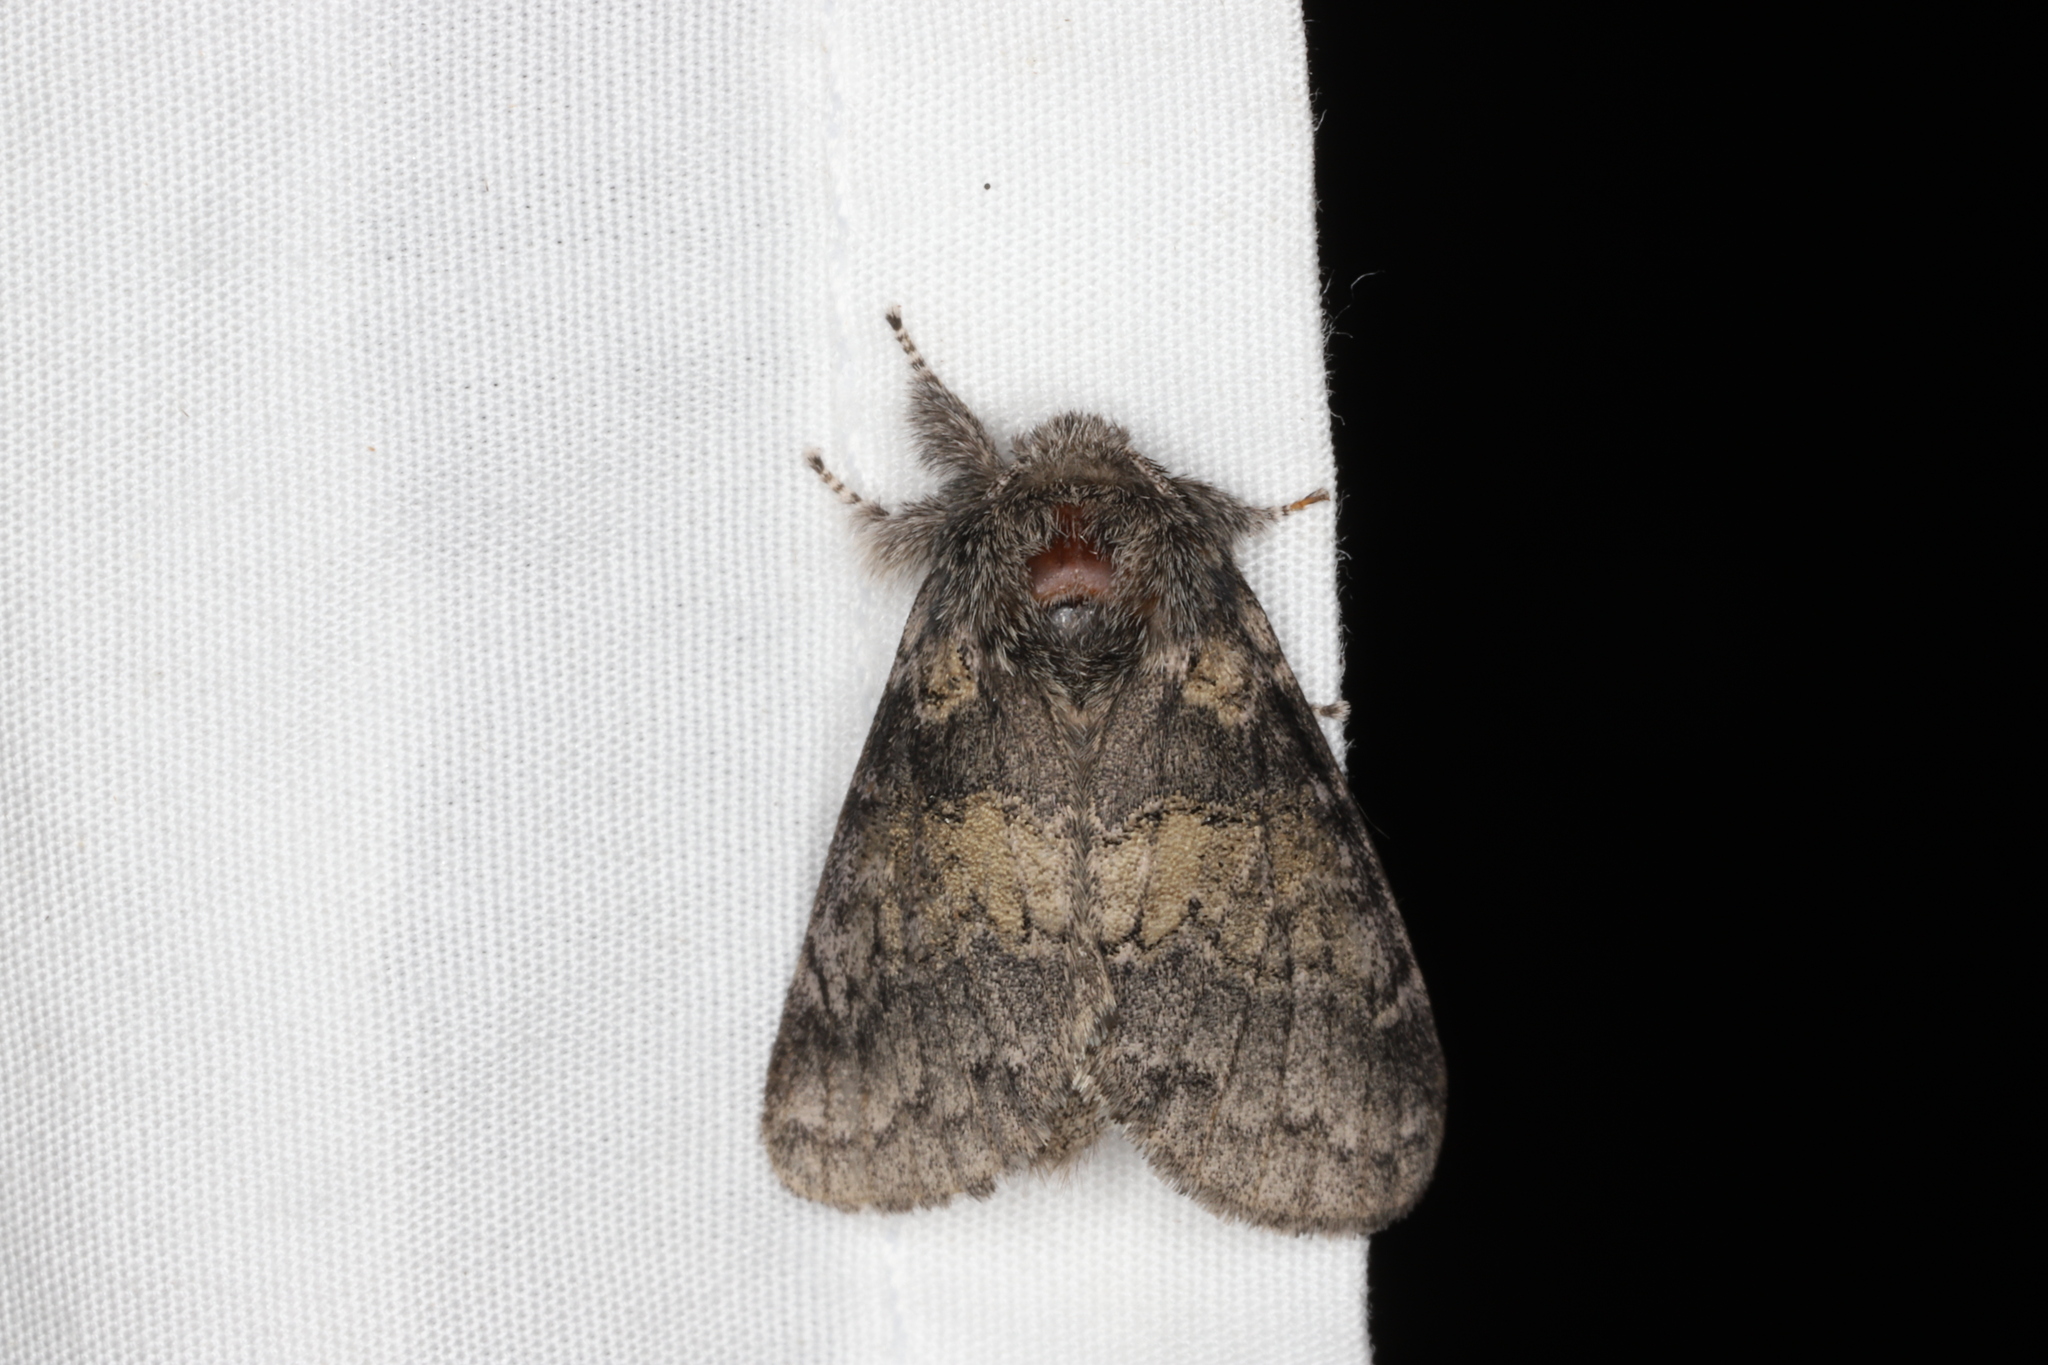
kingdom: Animalia
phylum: Arthropoda
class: Insecta
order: Lepidoptera
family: Notodontidae
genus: Gluphisia
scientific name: Gluphisia septentrionis
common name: Common gluphisia
